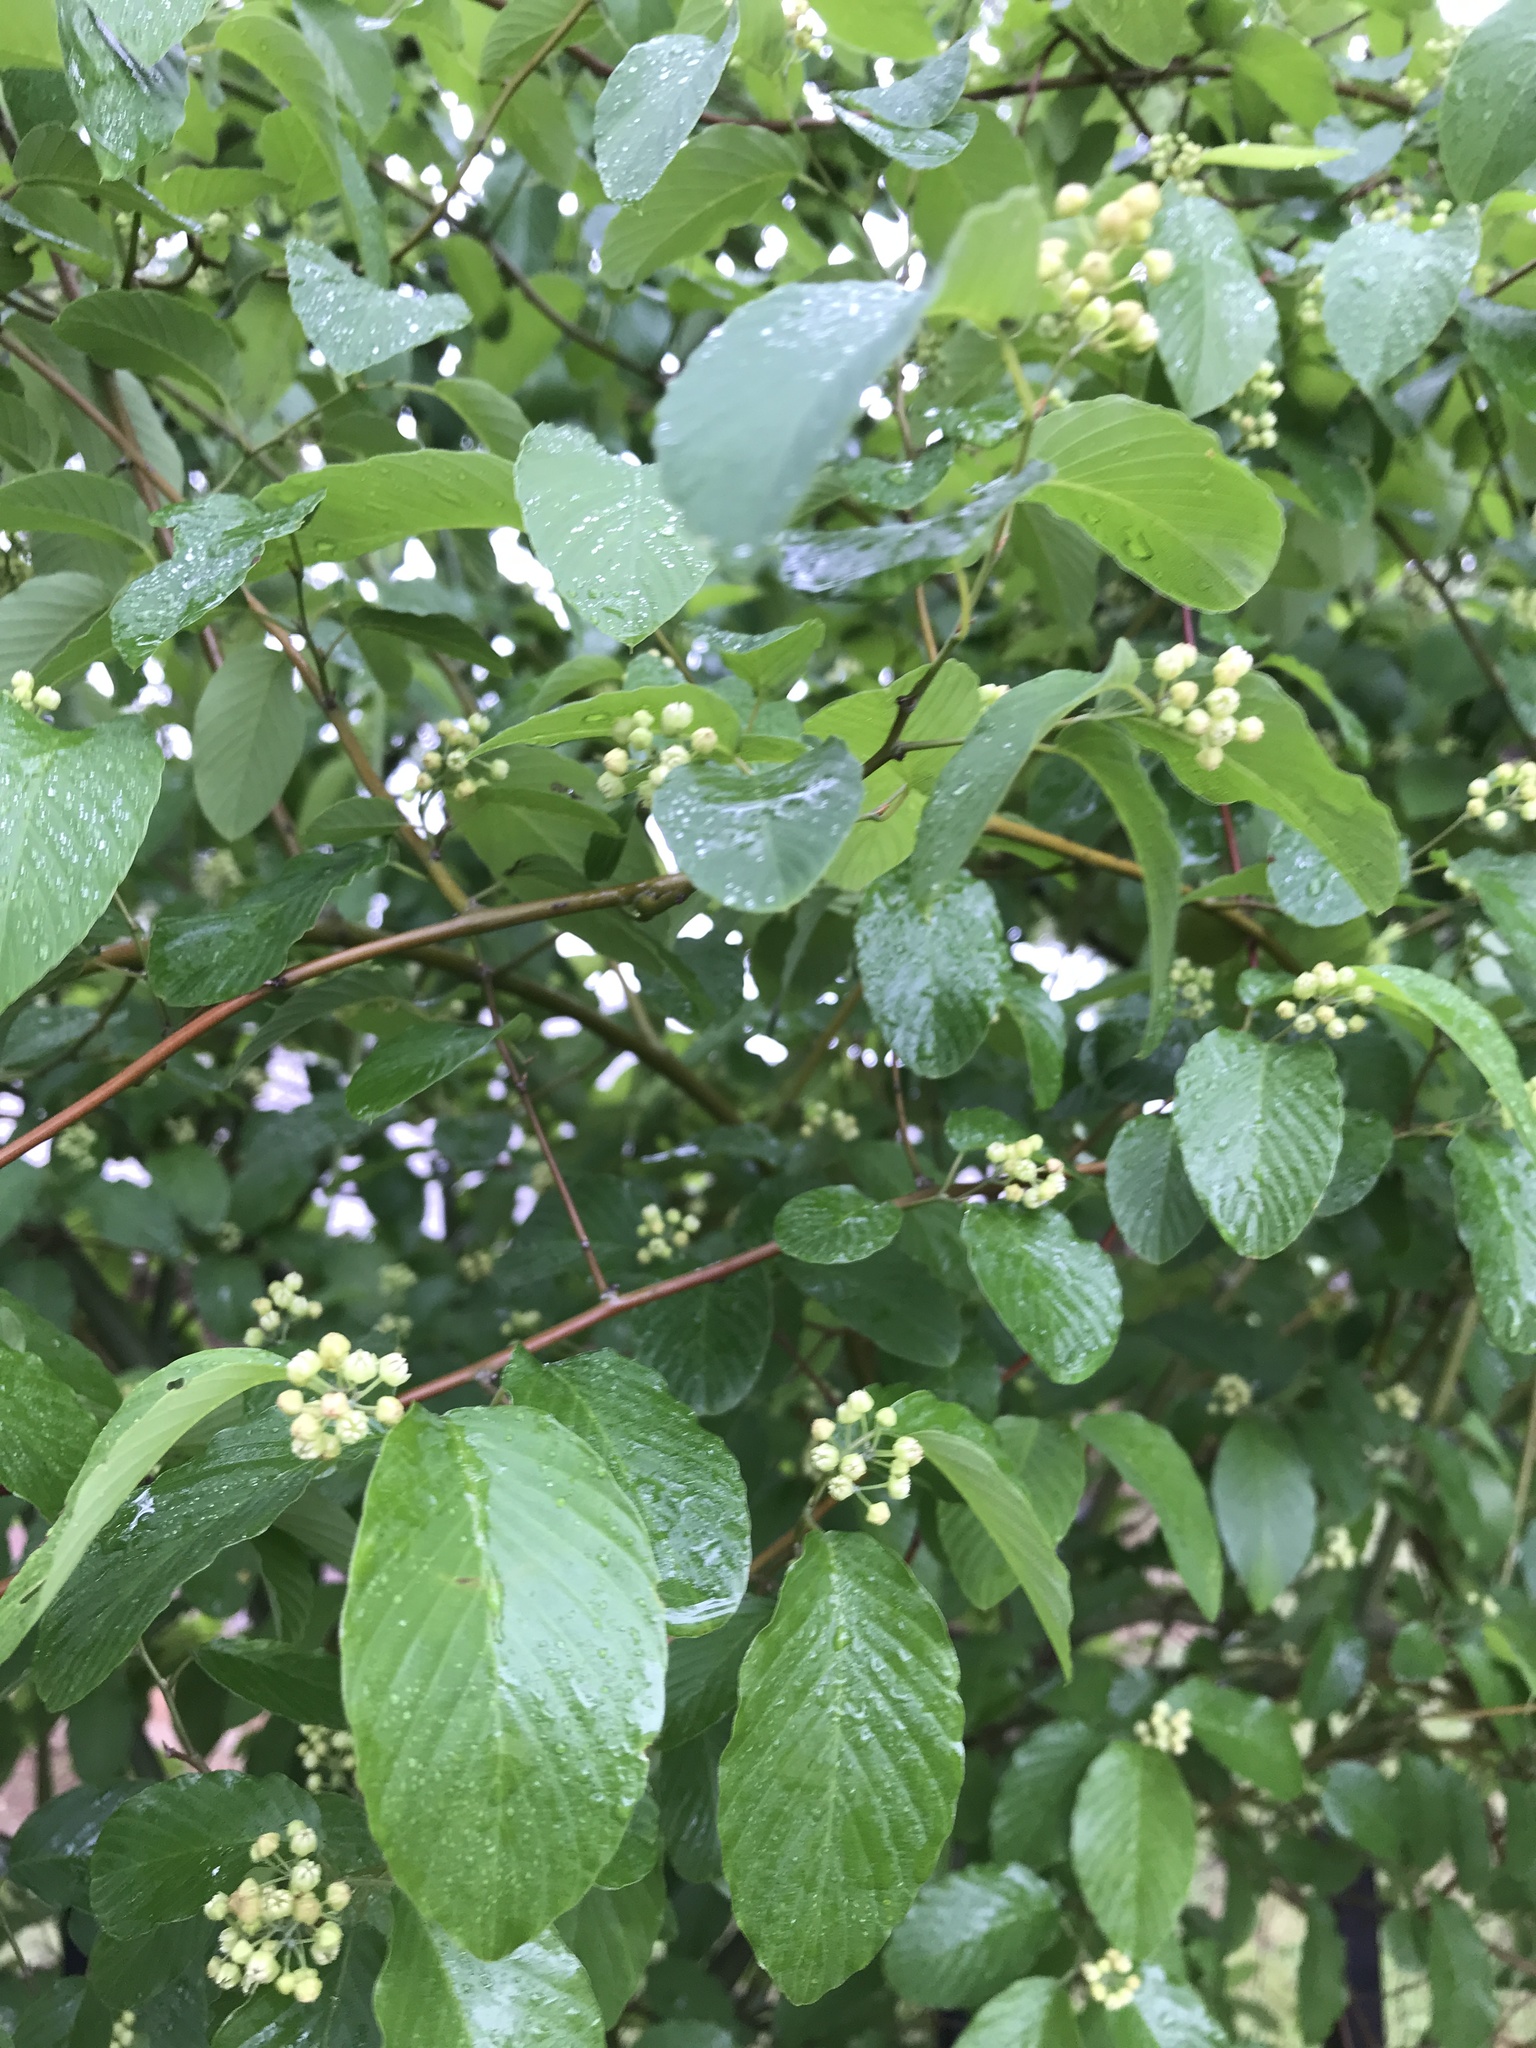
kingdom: Plantae
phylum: Tracheophyta
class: Magnoliopsida
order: Rosales
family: Rhamnaceae
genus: Berchemia
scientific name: Berchemia scandens
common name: Supplejack
